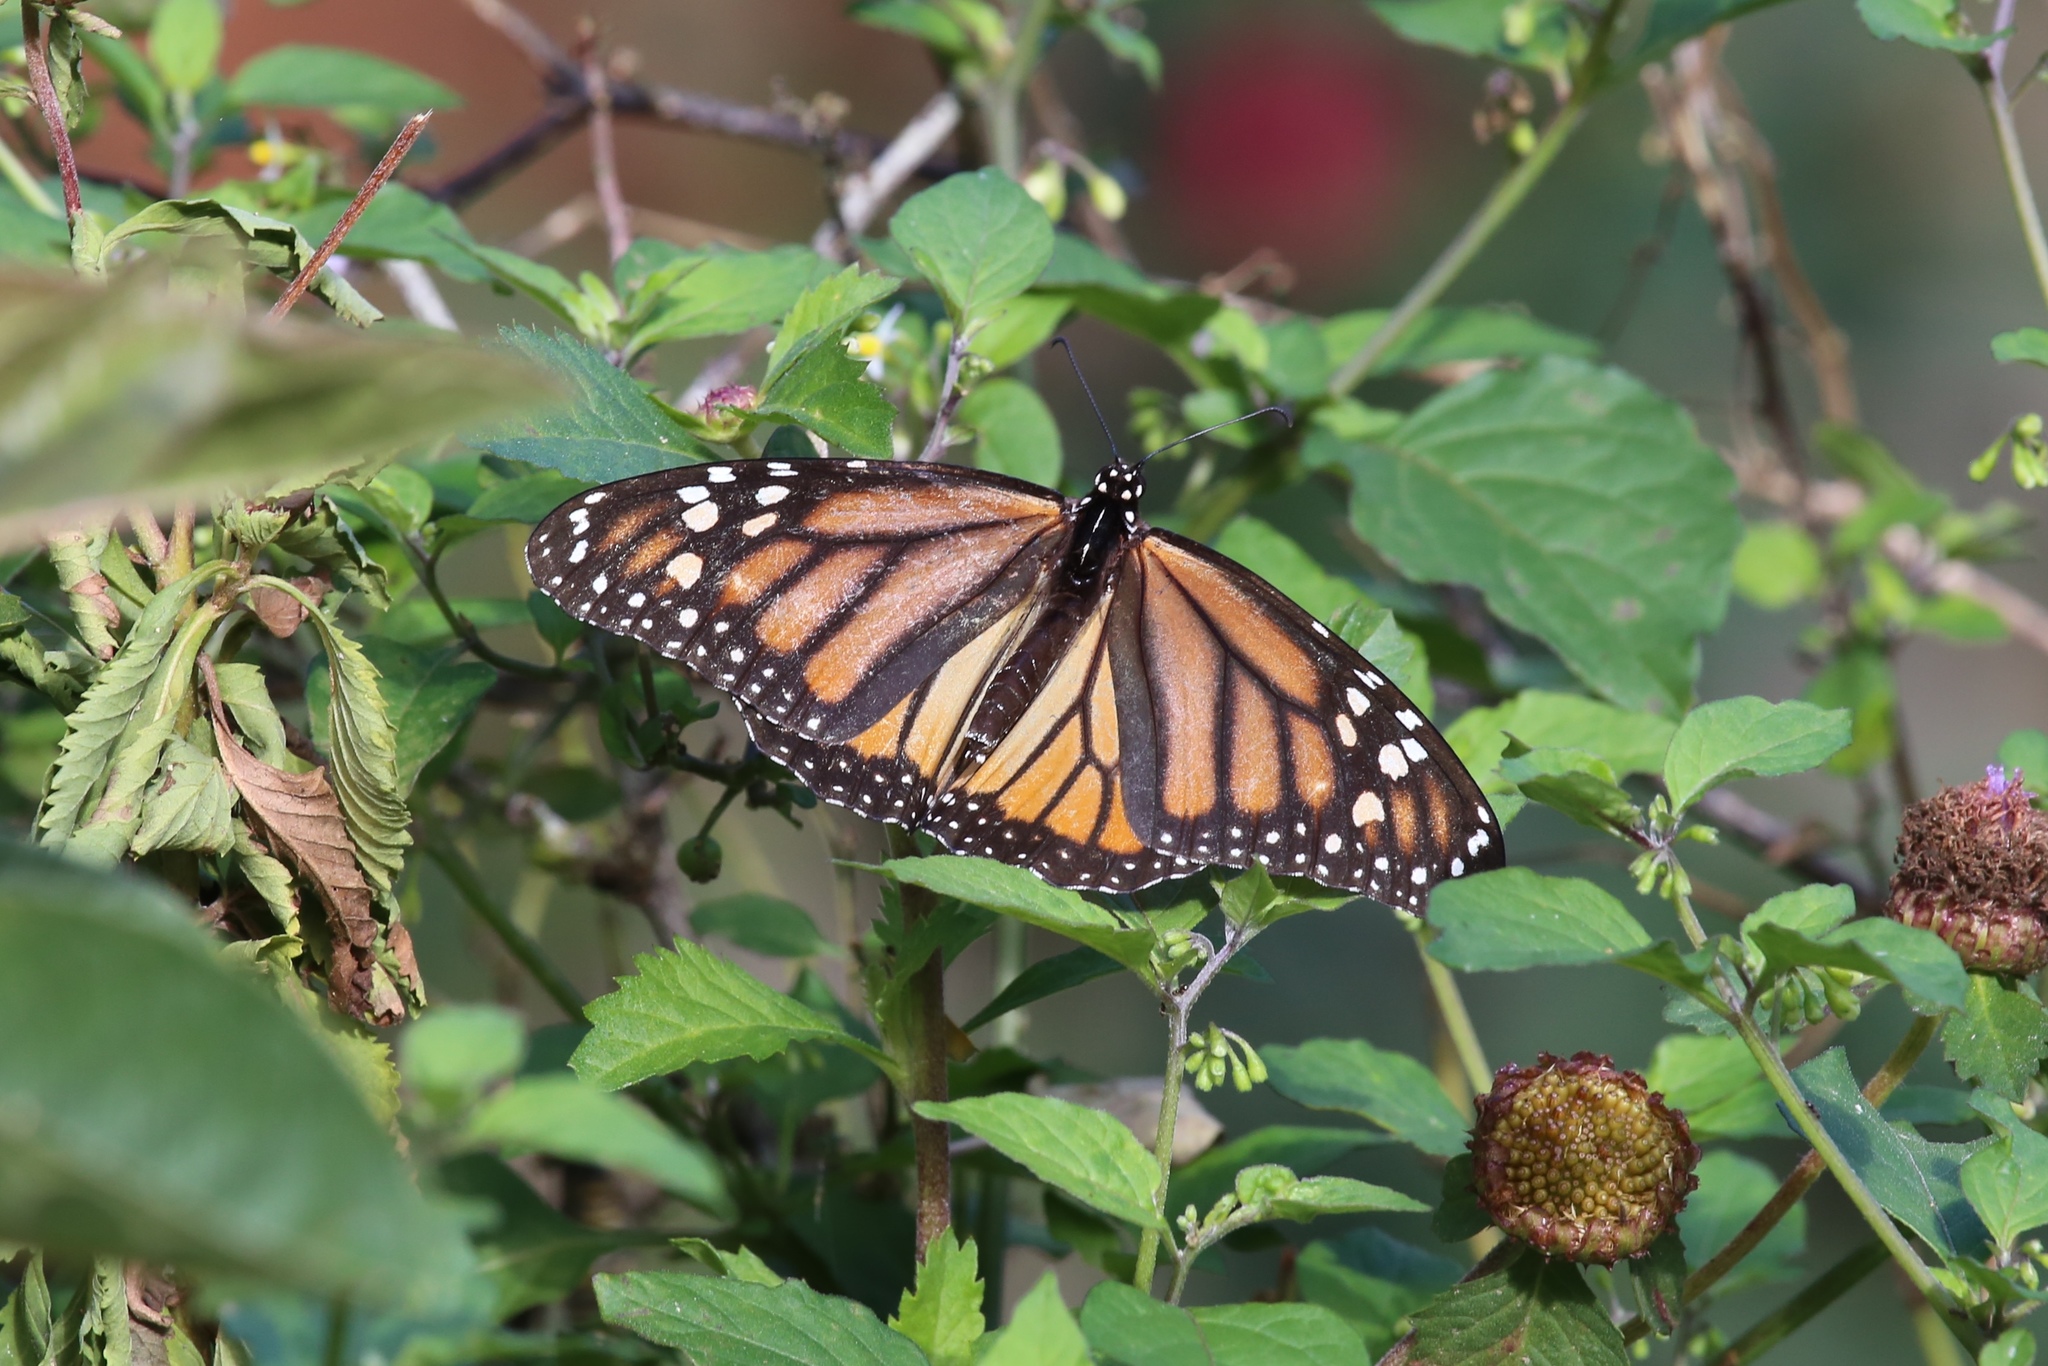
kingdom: Animalia
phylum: Arthropoda
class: Insecta
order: Lepidoptera
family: Nymphalidae
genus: Danaus
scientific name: Danaus plexippus
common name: Monarch
